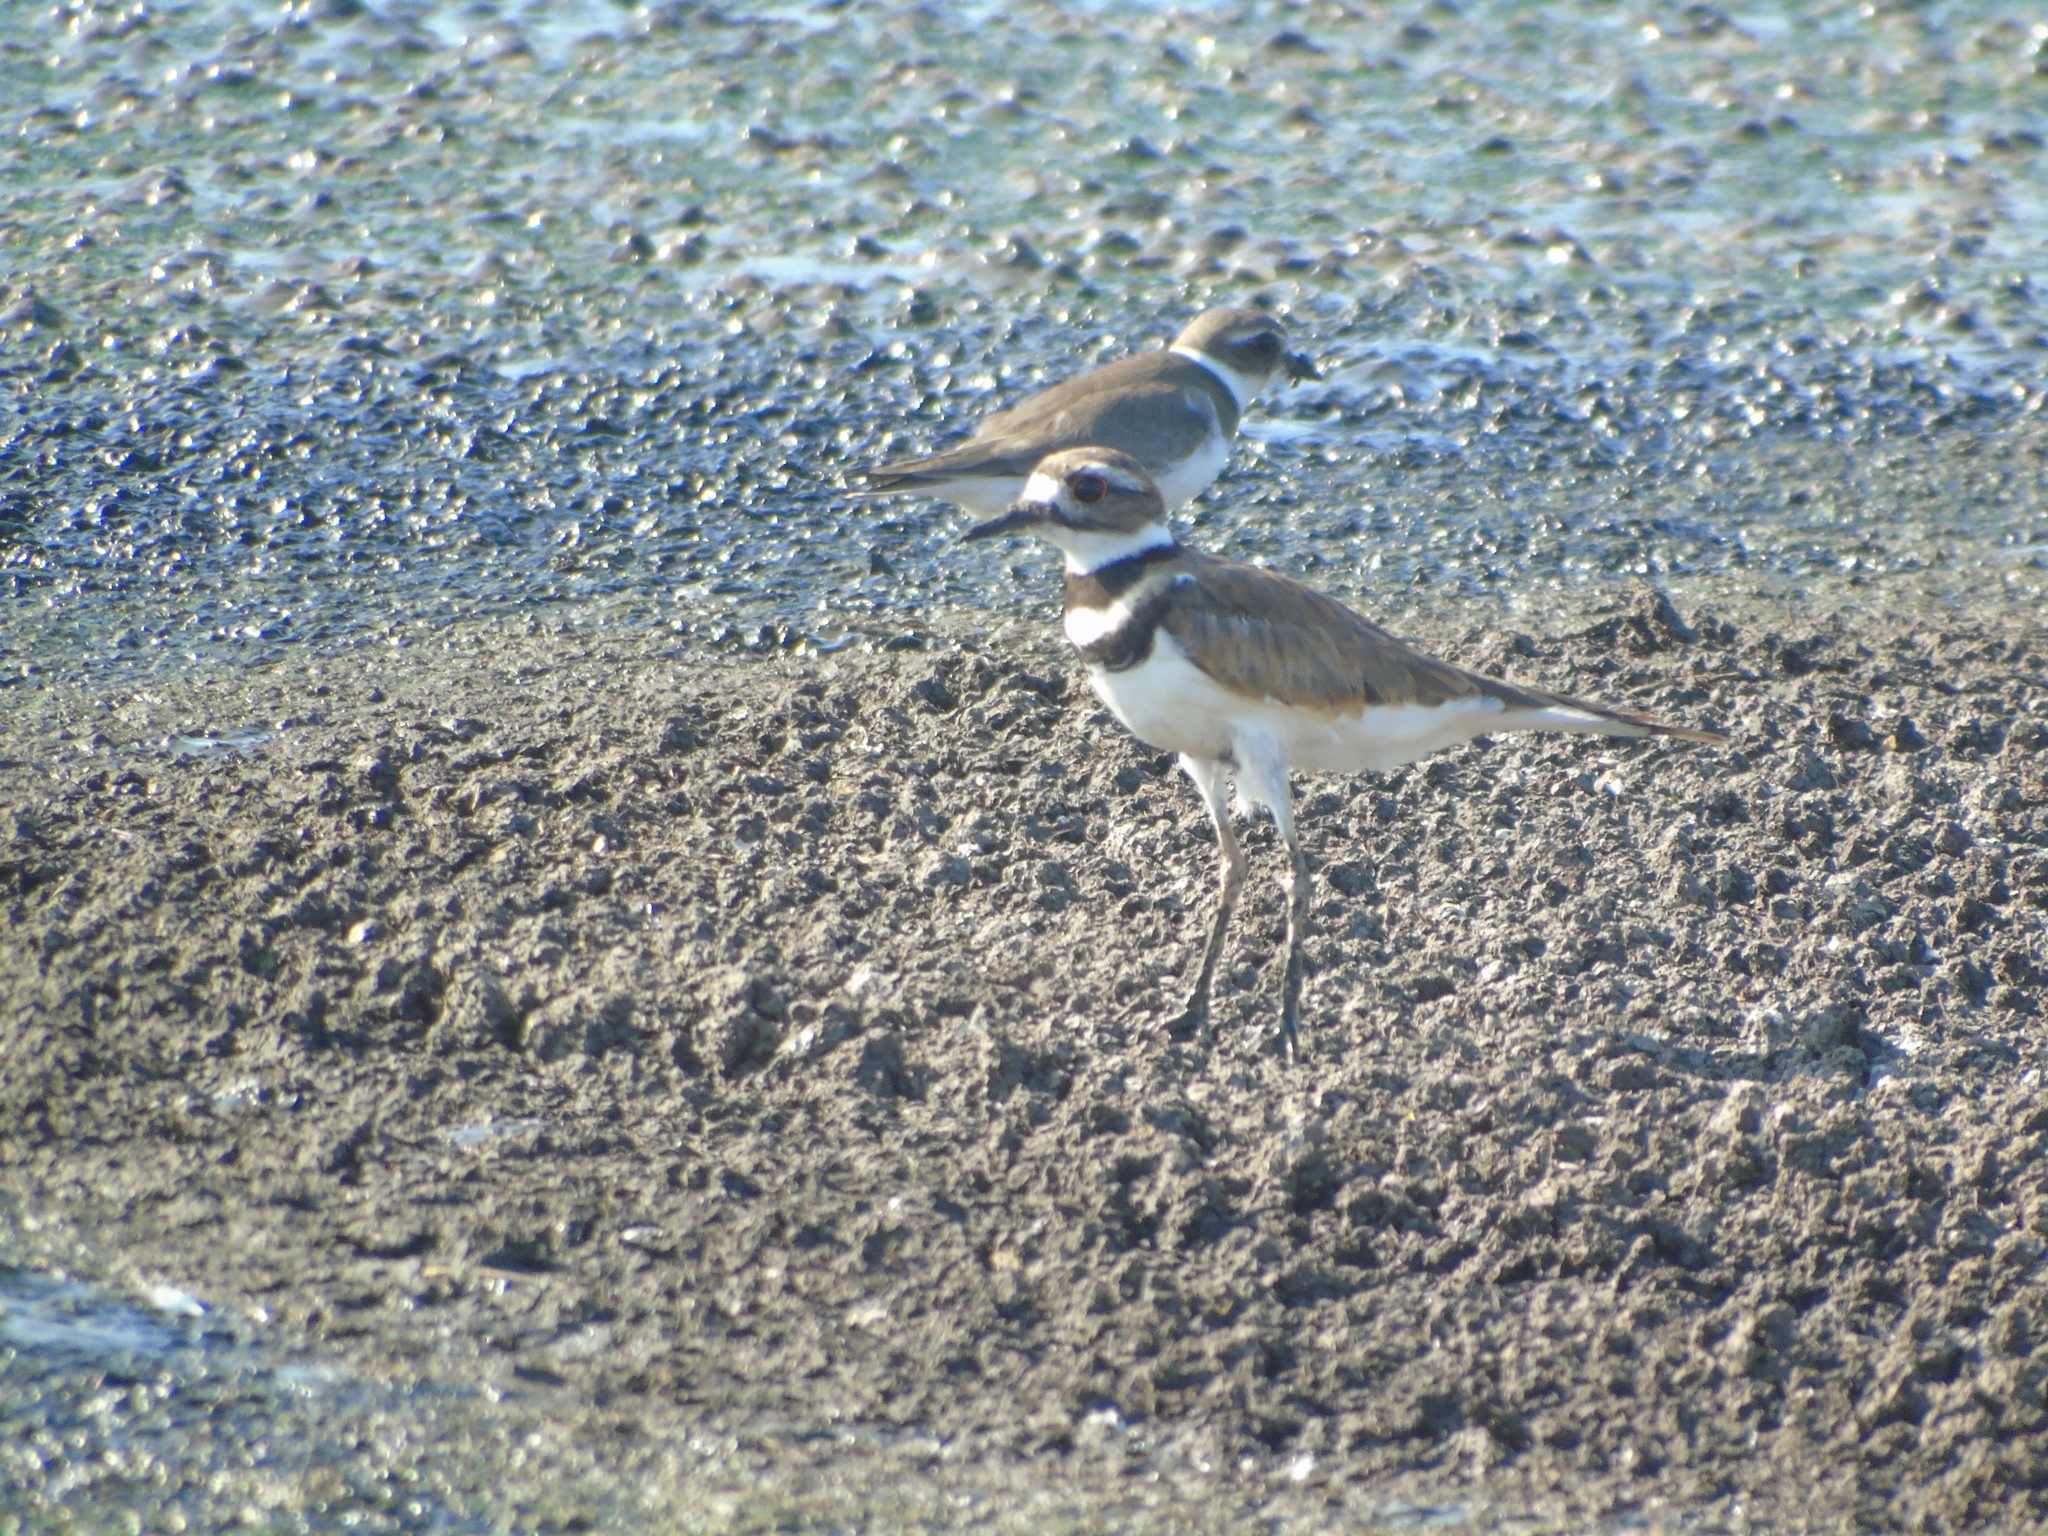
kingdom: Animalia
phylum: Chordata
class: Aves
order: Charadriiformes
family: Charadriidae
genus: Charadrius
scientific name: Charadrius vociferus
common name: Killdeer
